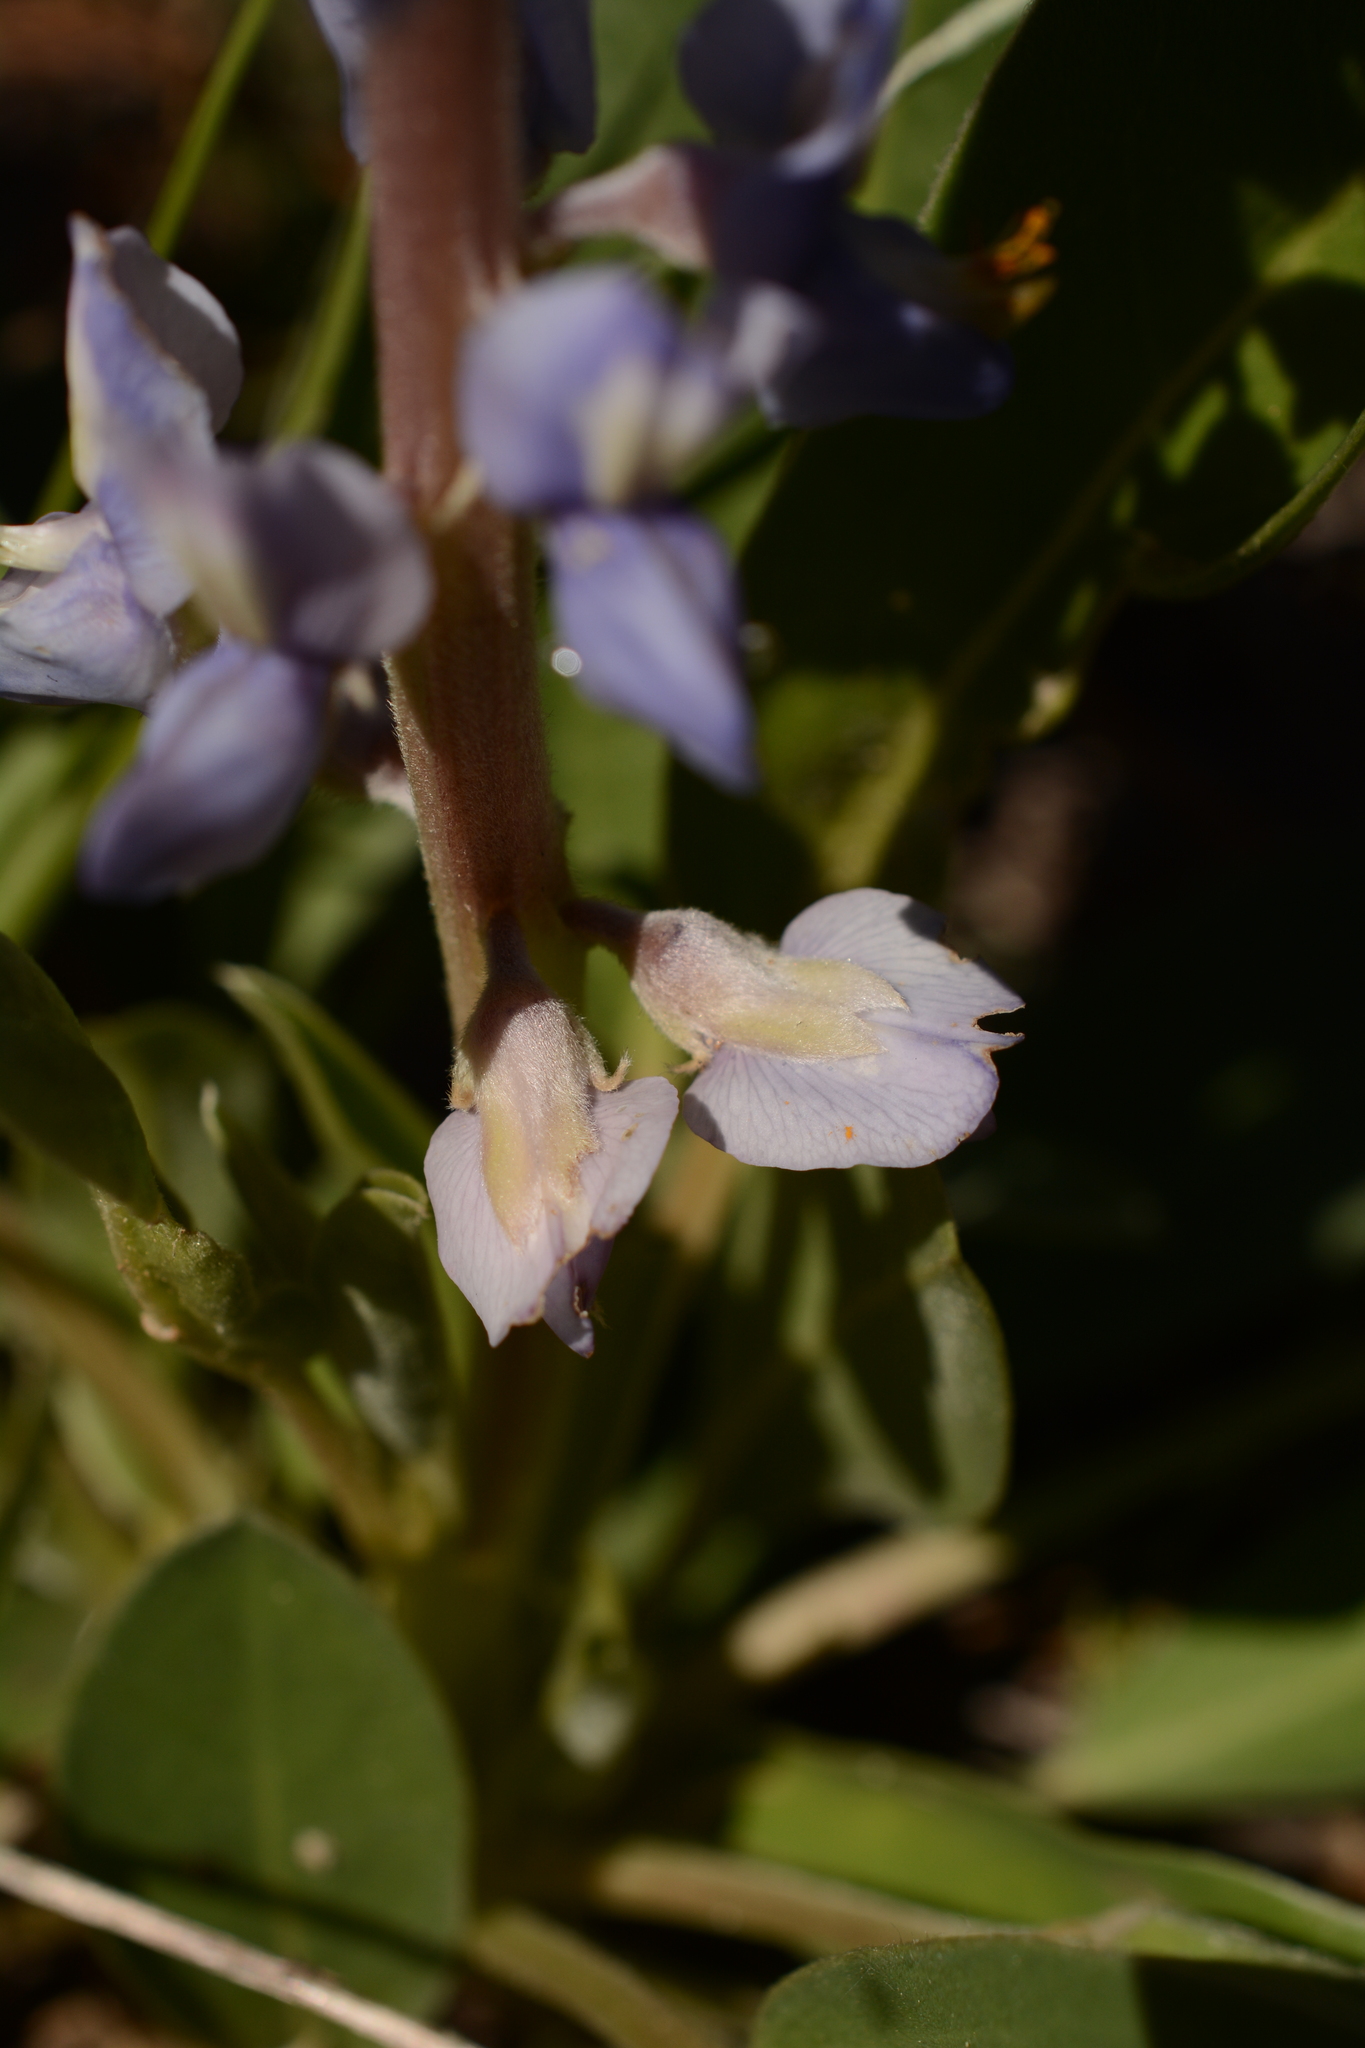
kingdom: Plantae
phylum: Tracheophyta
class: Magnoliopsida
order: Fabales
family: Fabaceae
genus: Lupinus
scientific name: Lupinus diffusus
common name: Oak ridge lupine
